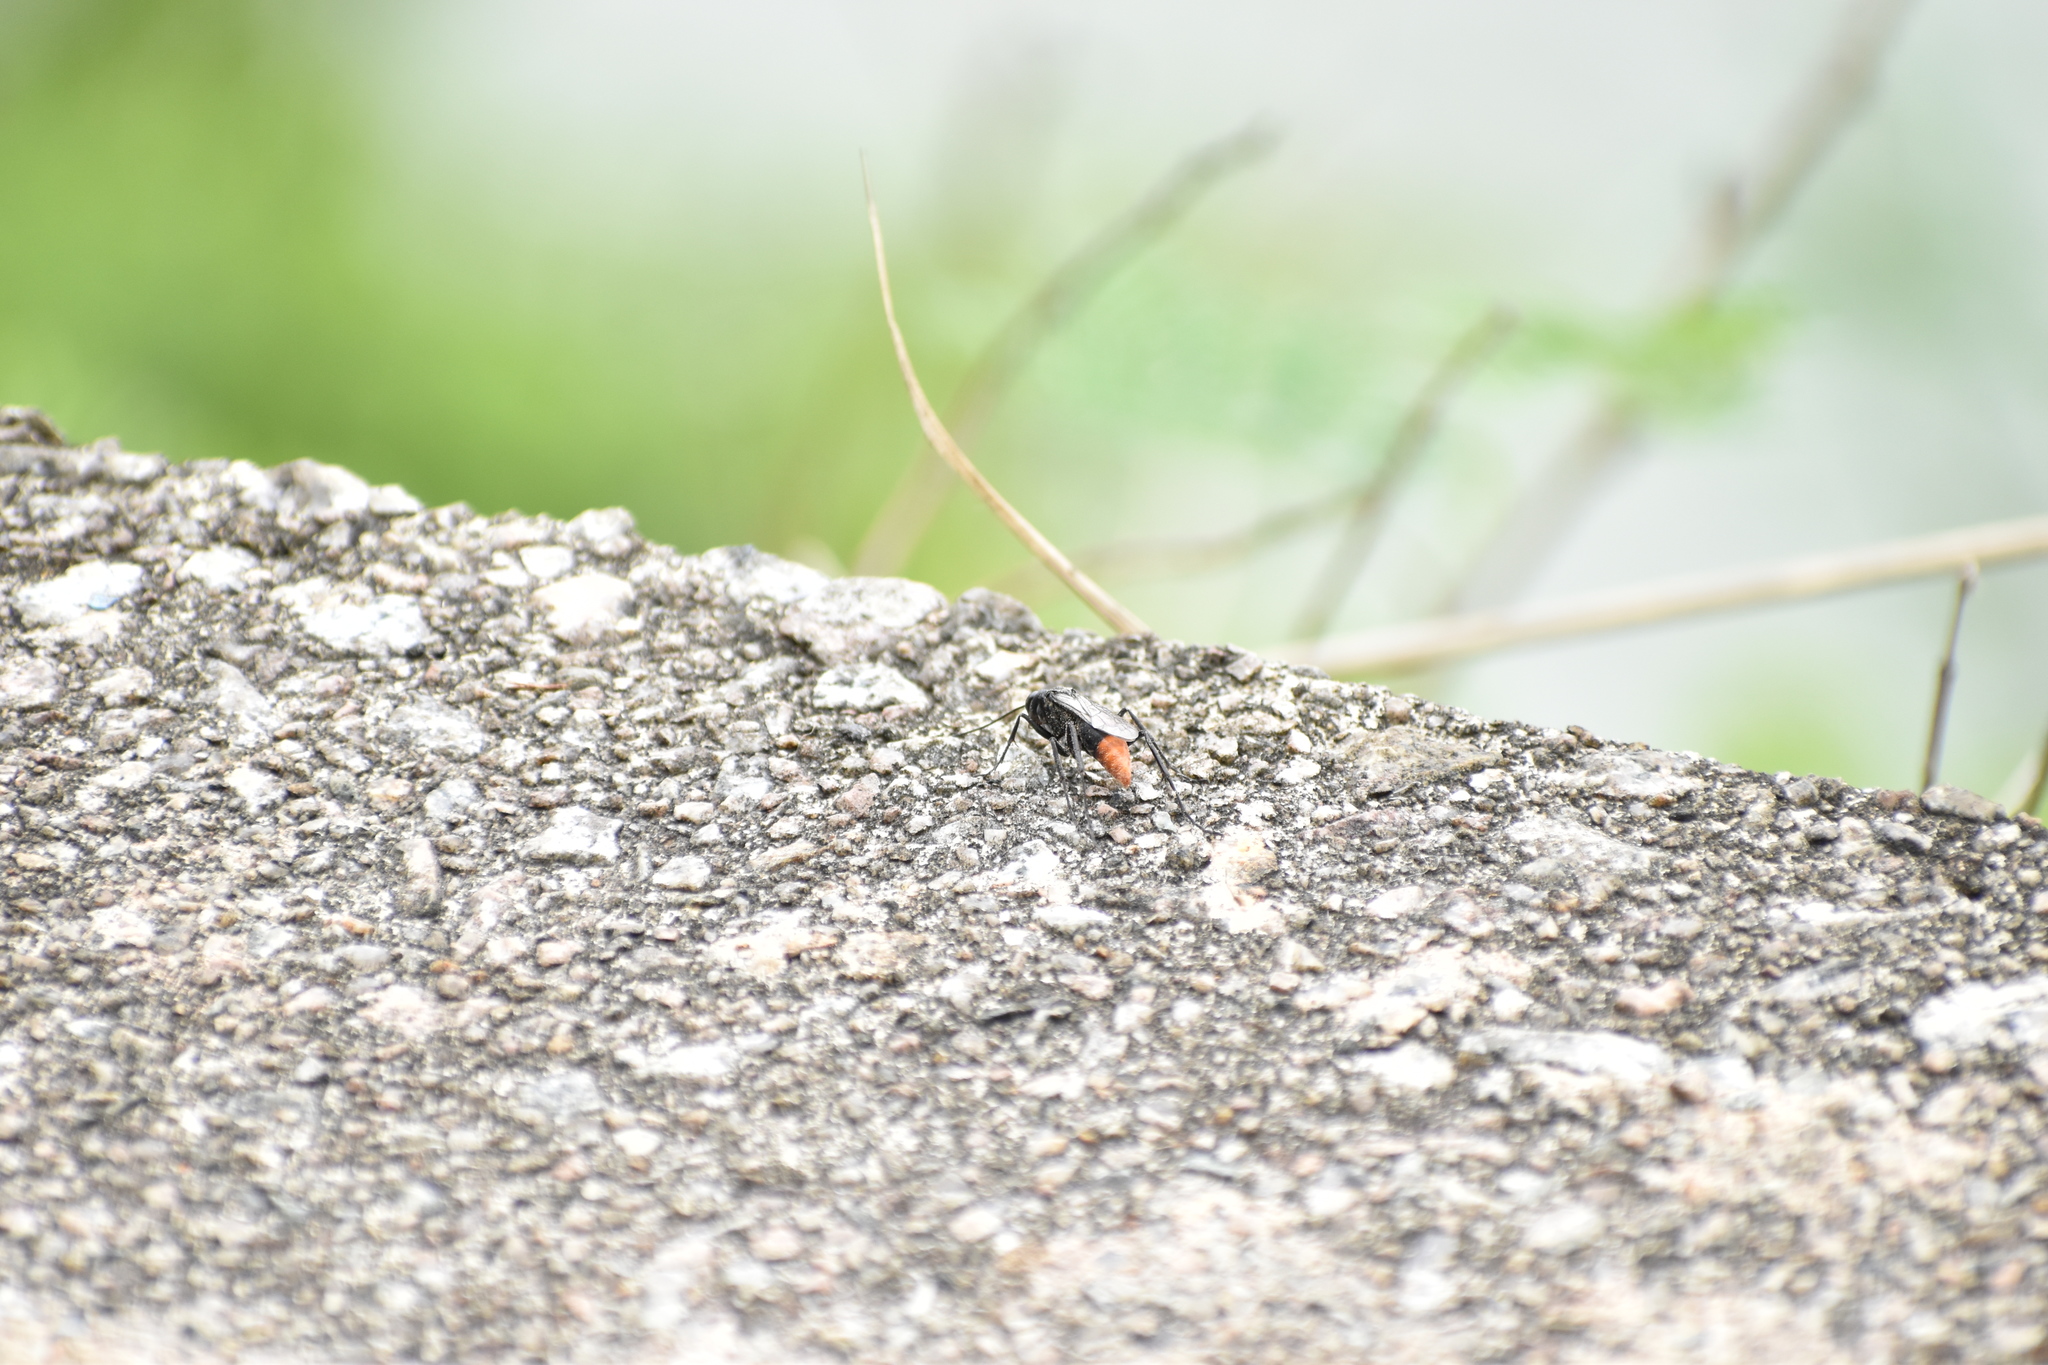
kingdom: Animalia
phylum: Arthropoda
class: Insecta
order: Hymenoptera
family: Pompilidae
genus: Tachypompilus
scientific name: Tachypompilus analis
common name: Spider wasp
